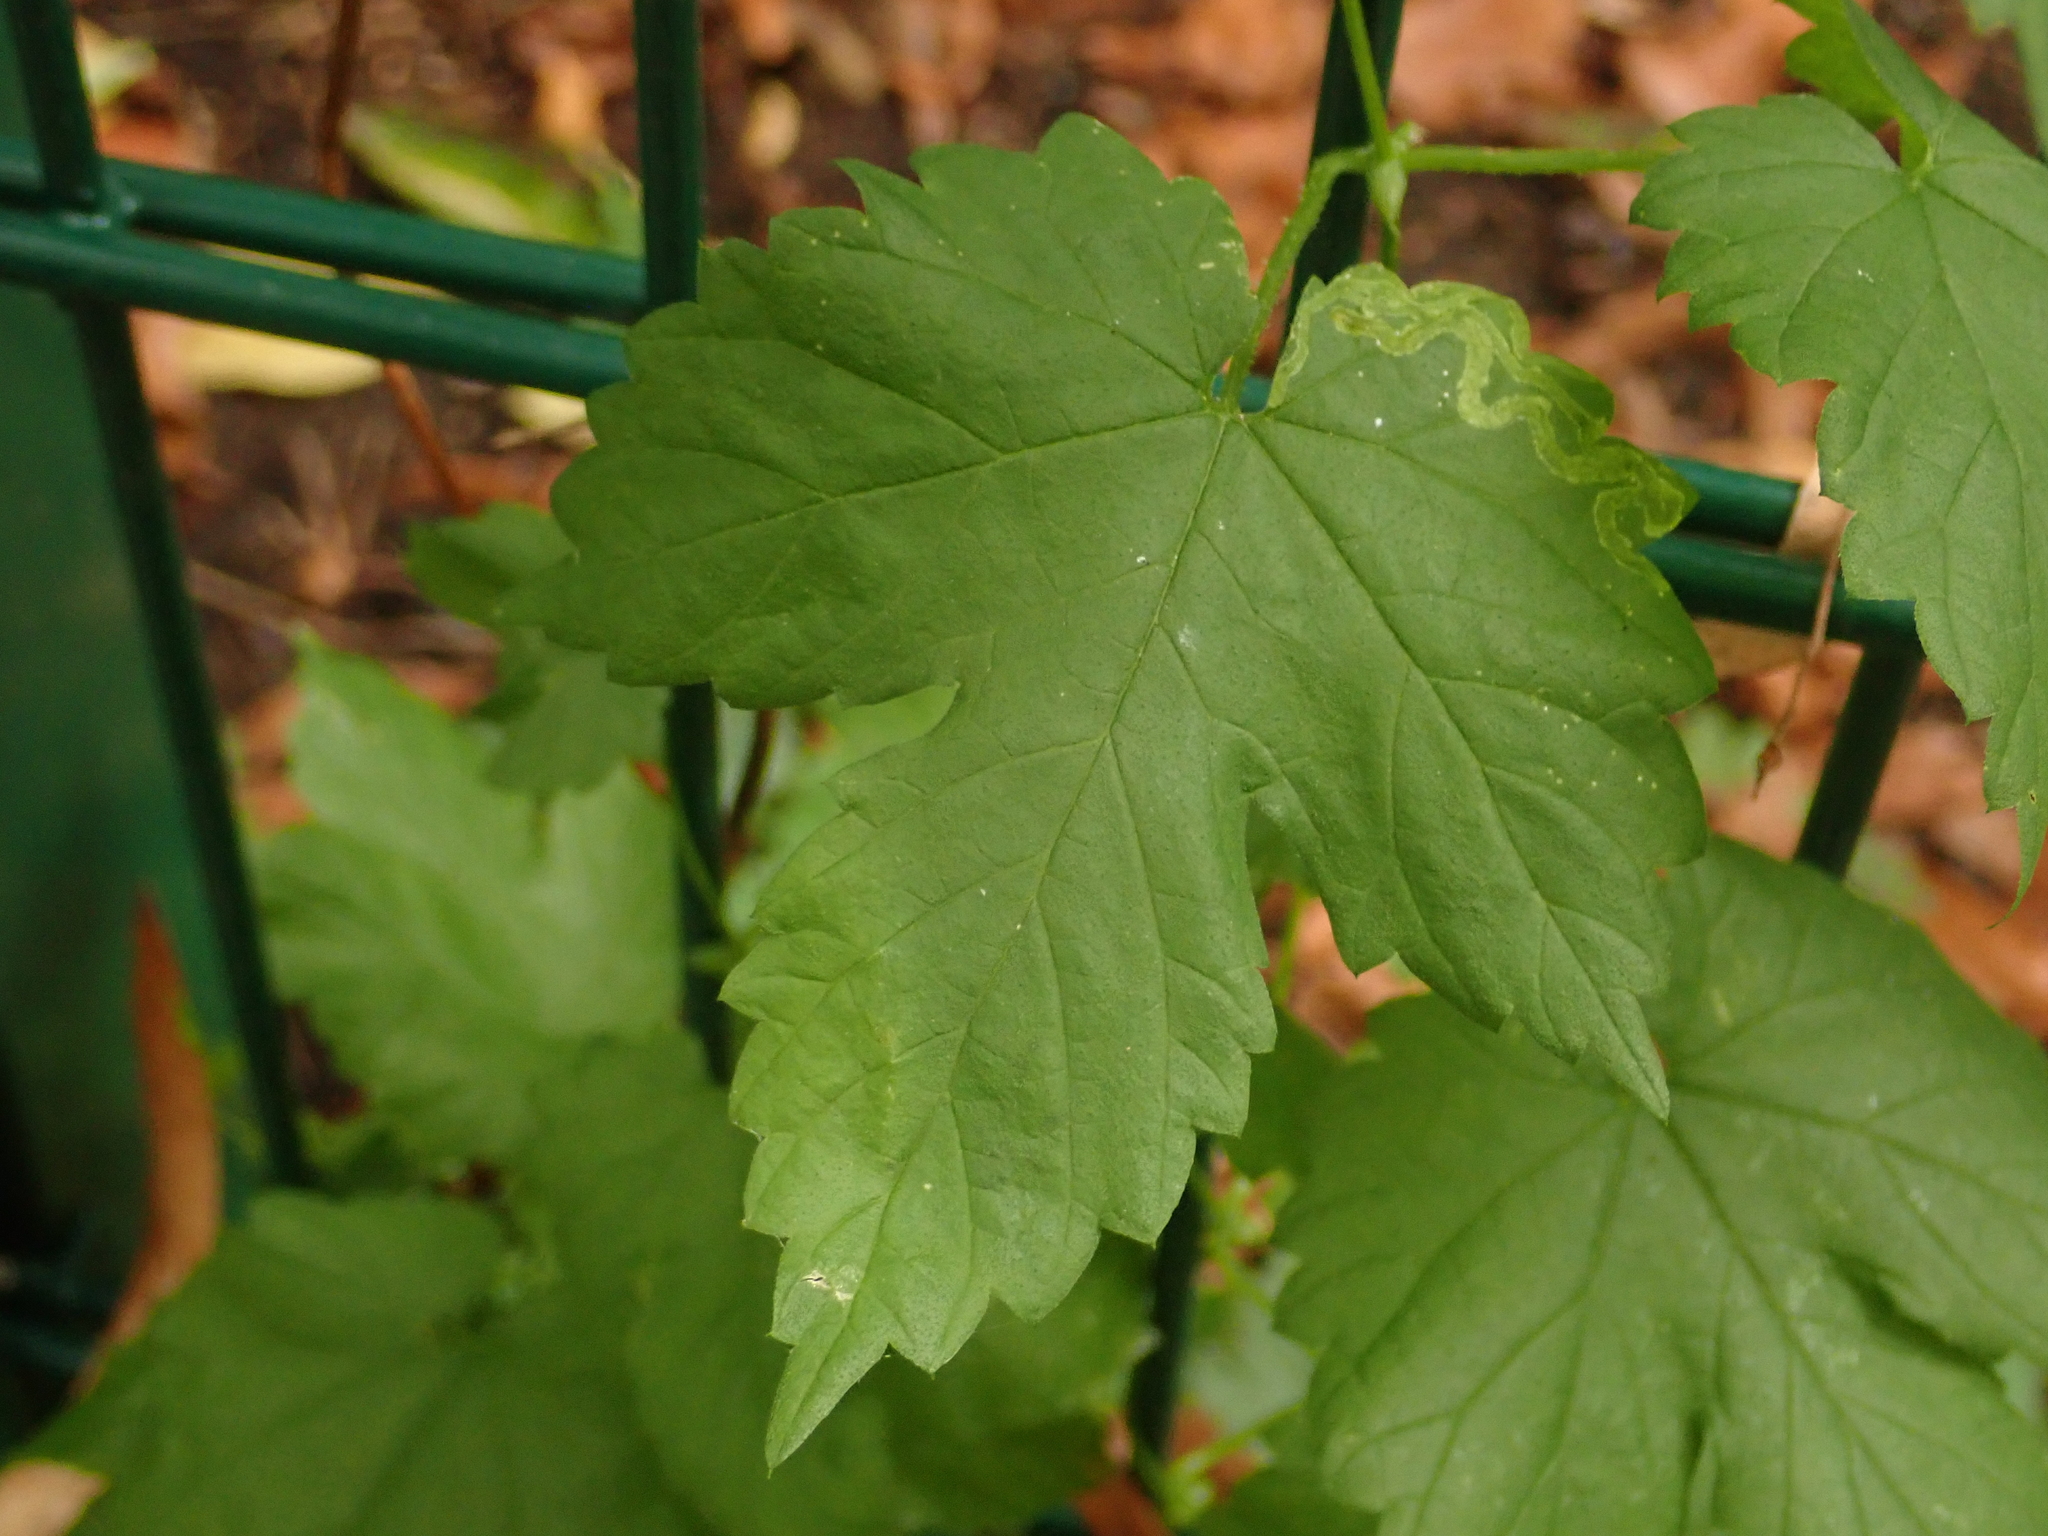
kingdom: Plantae
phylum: Tracheophyta
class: Magnoliopsida
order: Rosales
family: Cannabaceae
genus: Humulus
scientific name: Humulus lupulus
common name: Hop
